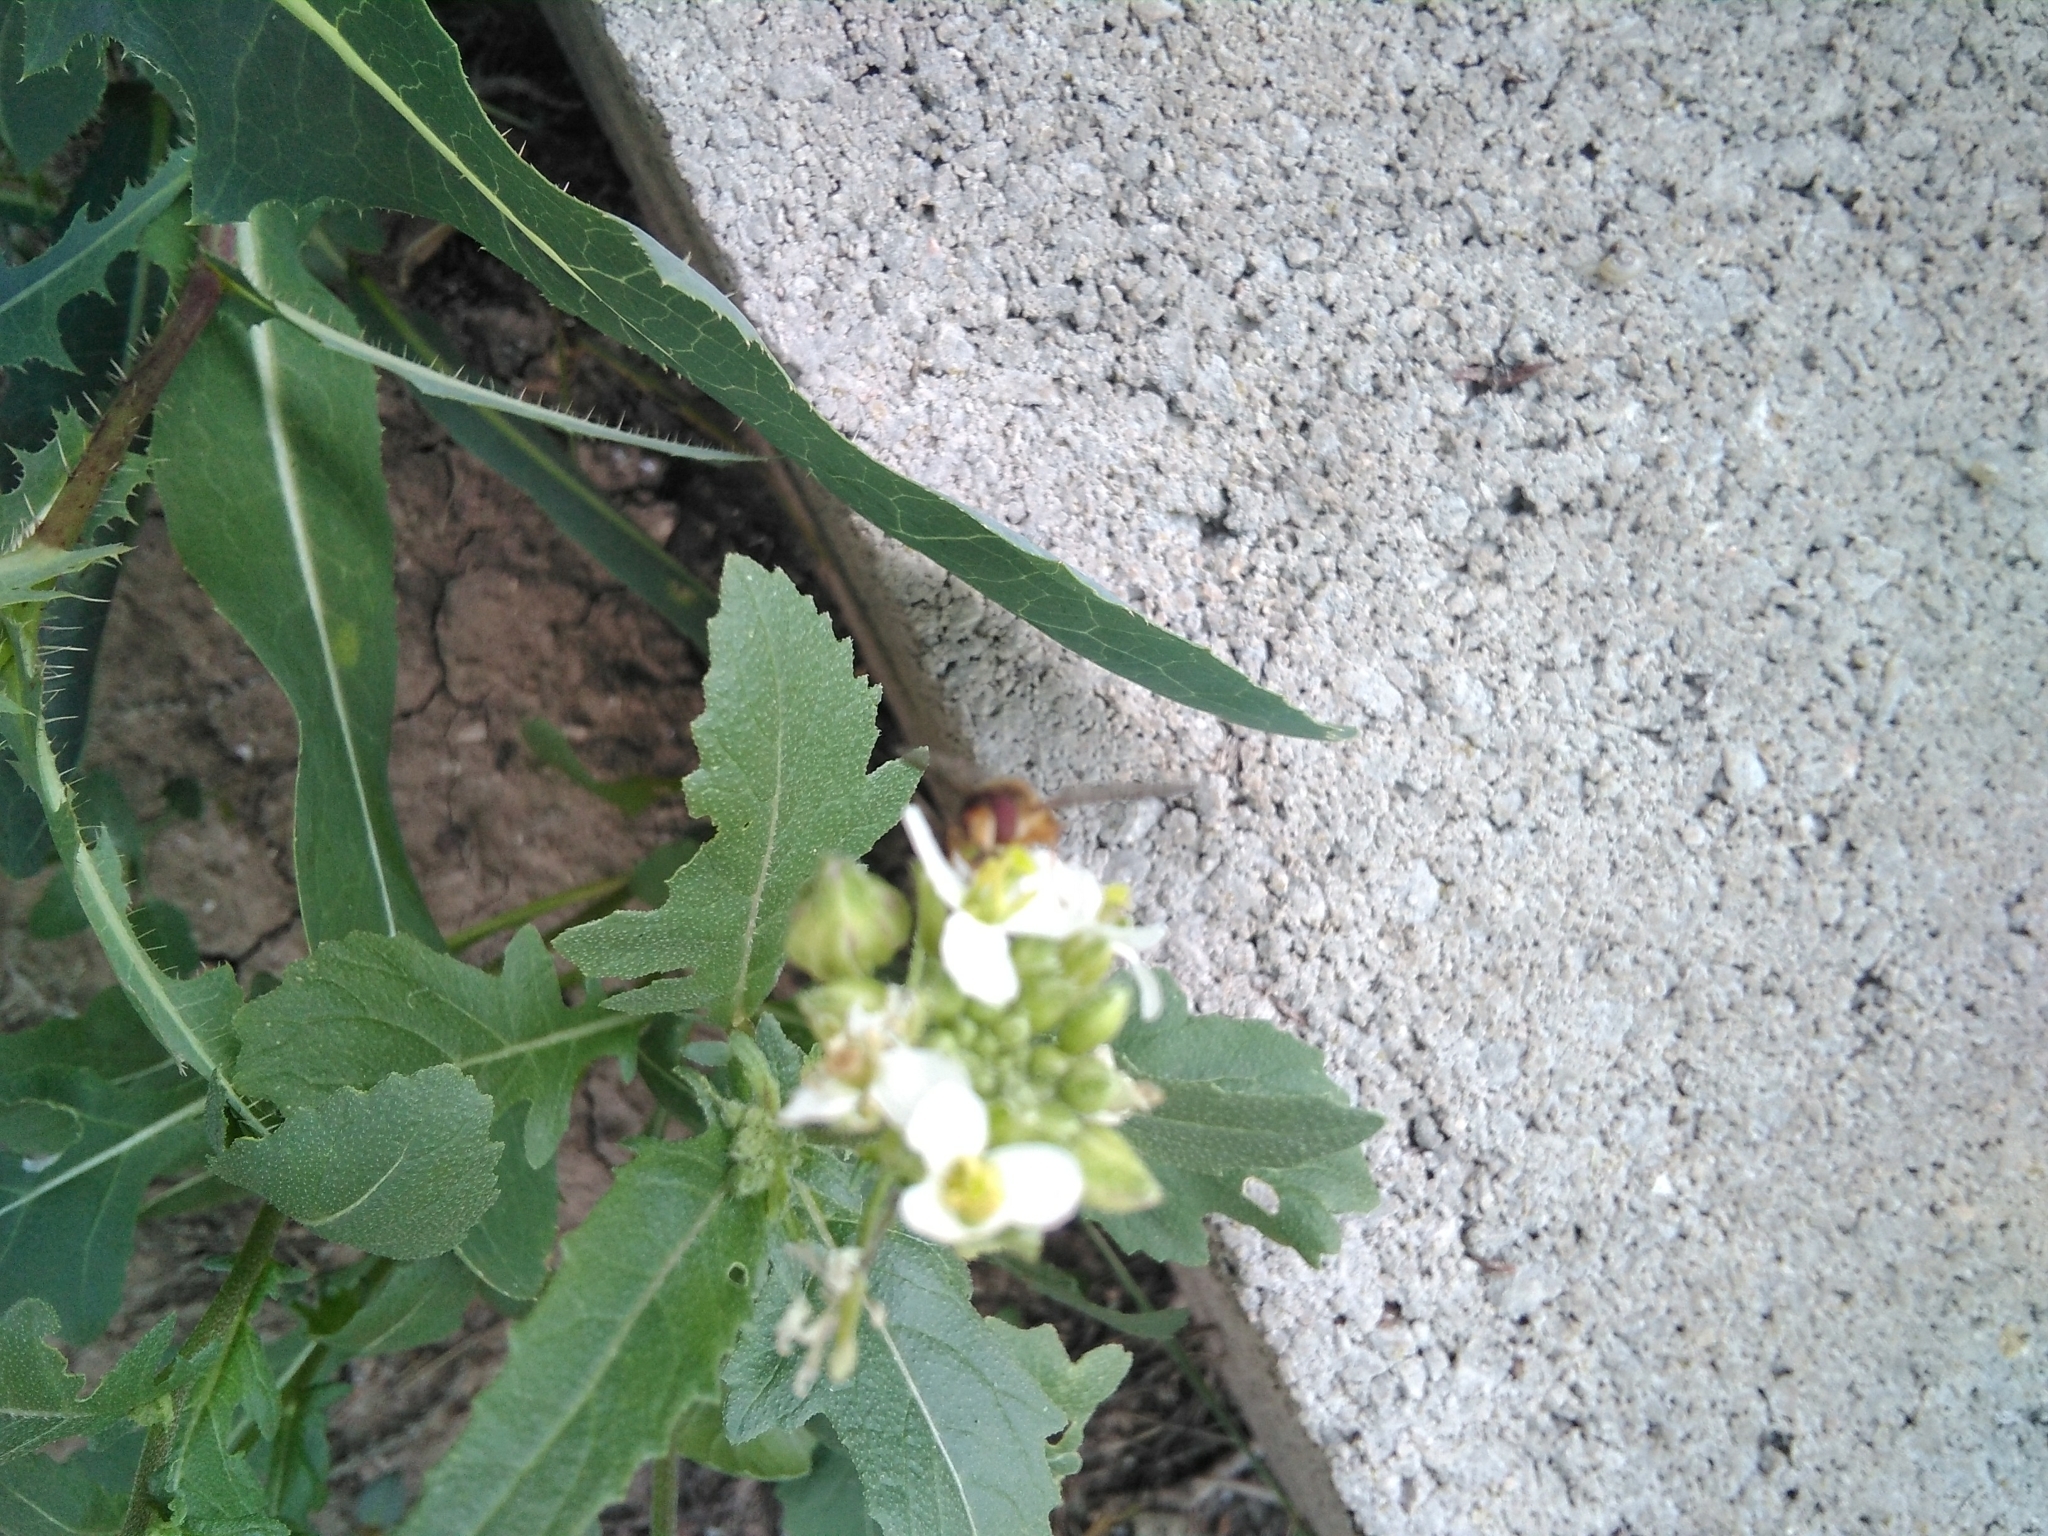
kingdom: Animalia
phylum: Arthropoda
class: Insecta
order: Diptera
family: Syrphidae
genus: Episyrphus
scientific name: Episyrphus balteatus
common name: Marmalade hoverfly
